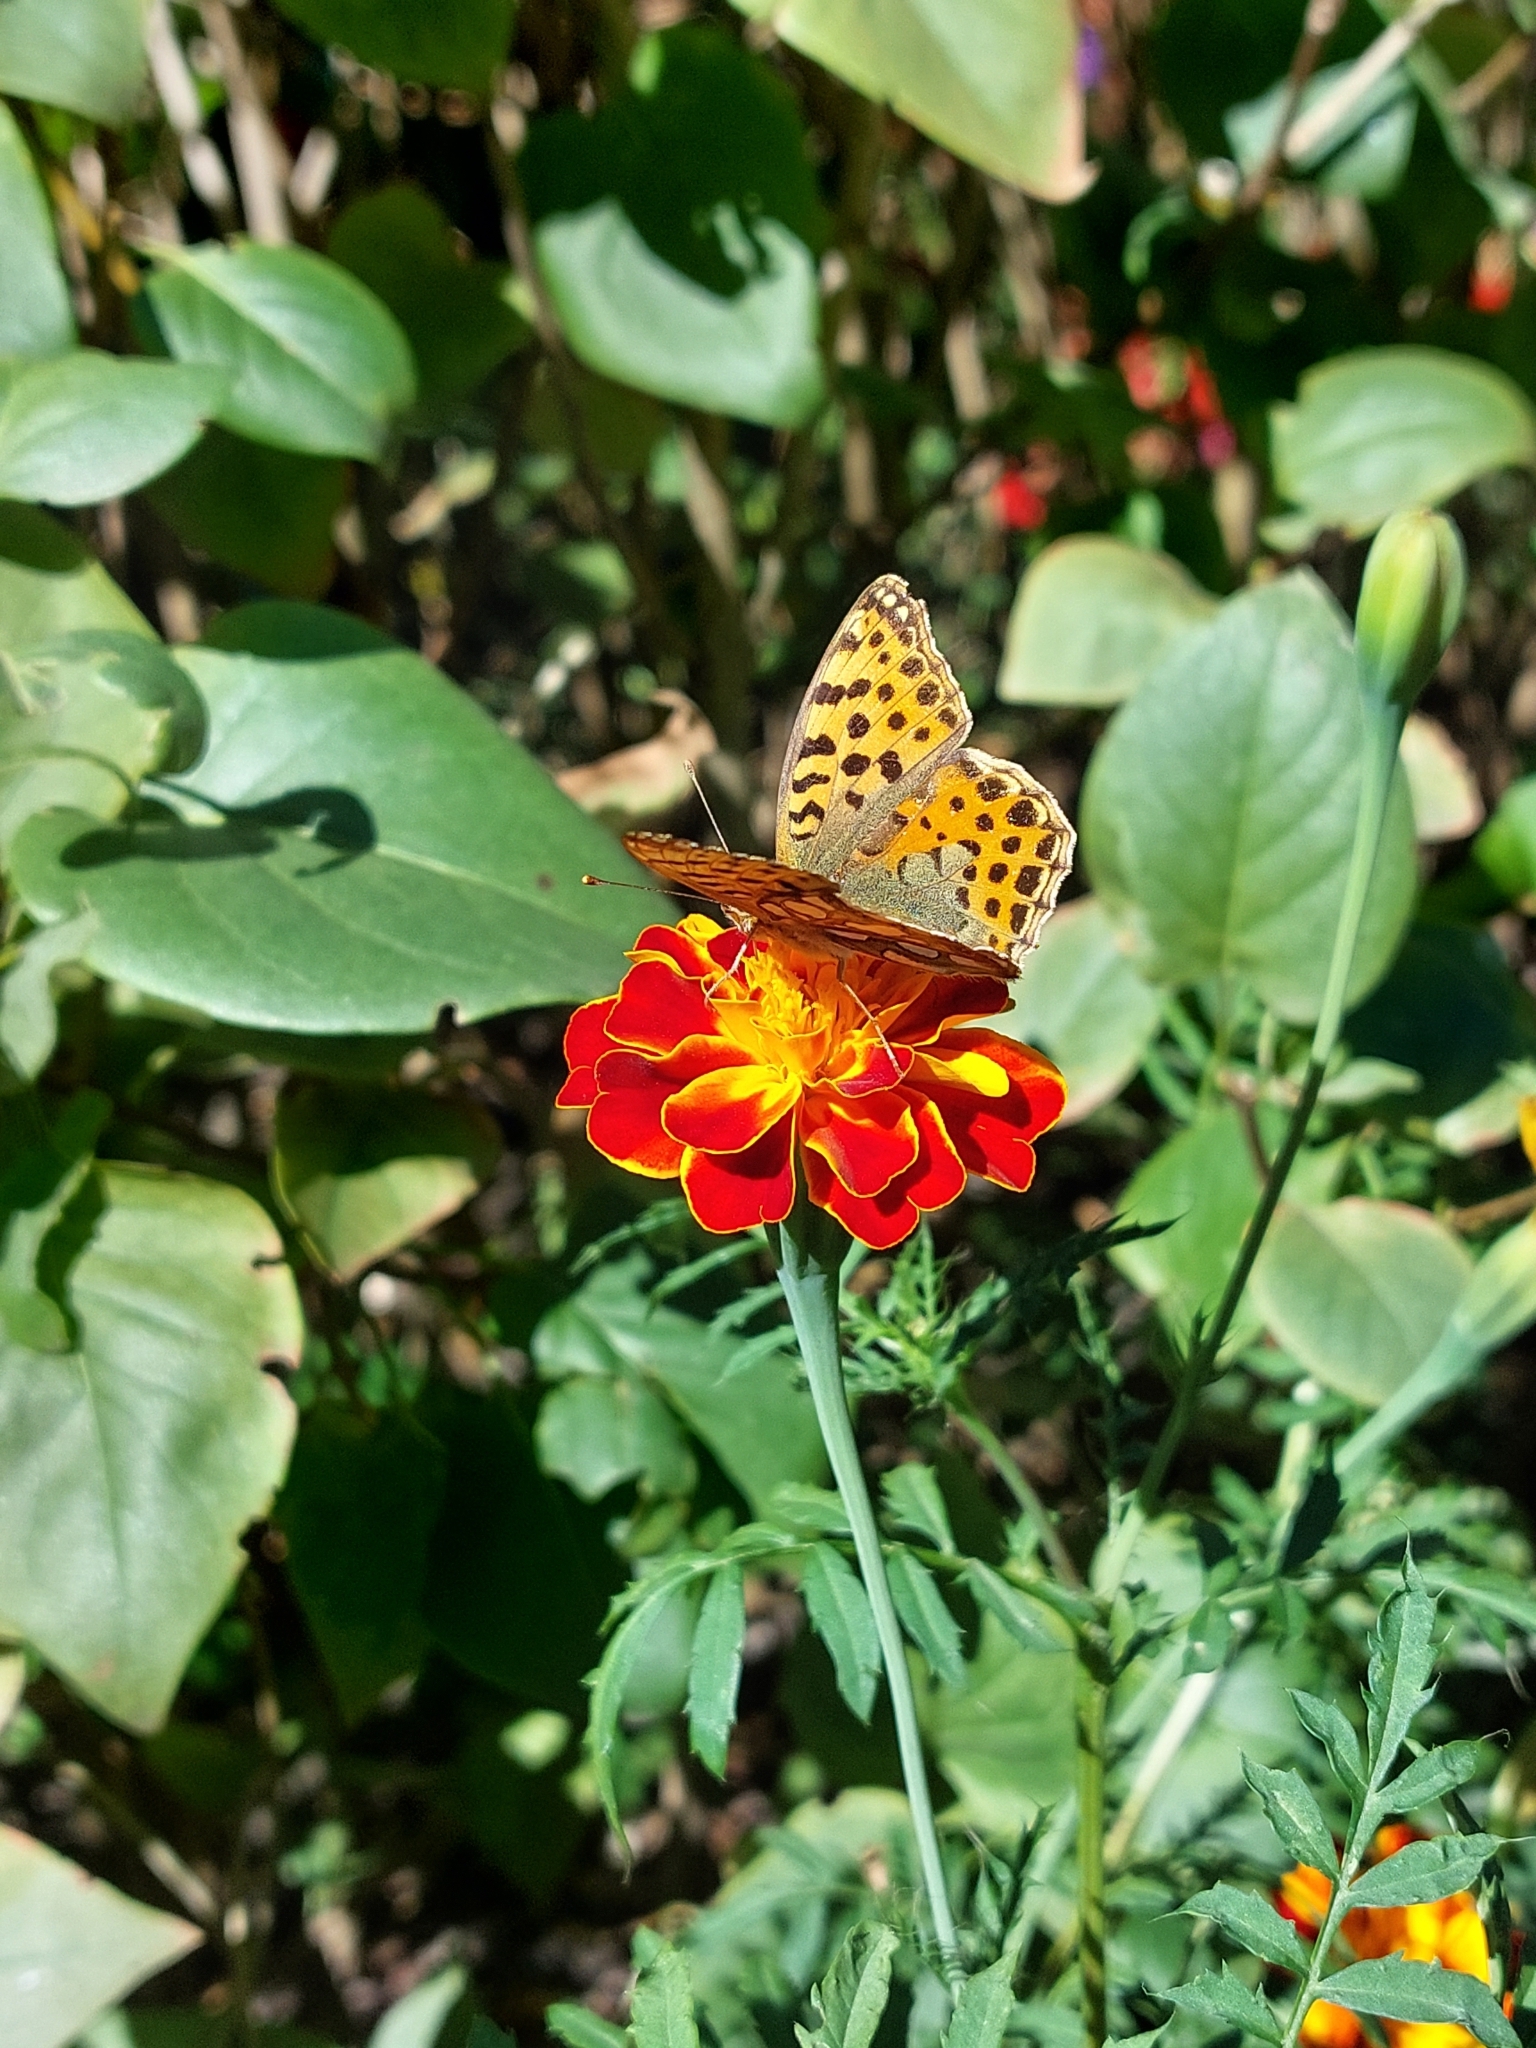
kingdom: Animalia
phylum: Arthropoda
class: Insecta
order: Lepidoptera
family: Nymphalidae
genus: Issoria
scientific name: Issoria lathonia
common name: Queen of spain fritillary
